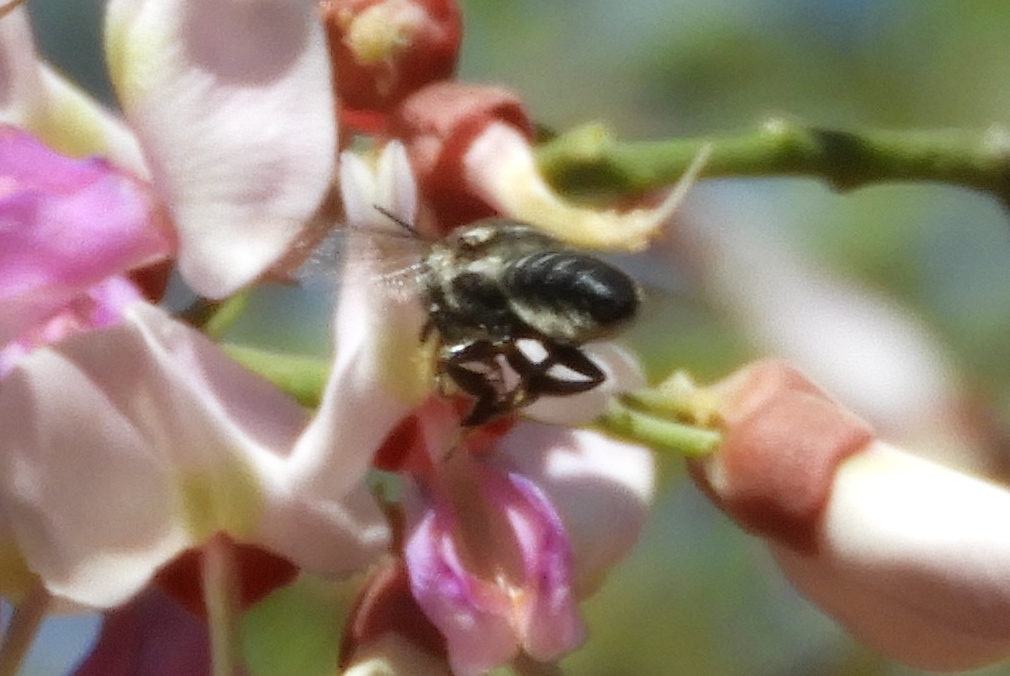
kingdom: Animalia
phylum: Arthropoda
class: Insecta
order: Hymenoptera
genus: Tylomegachile
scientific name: Tylomegachile
